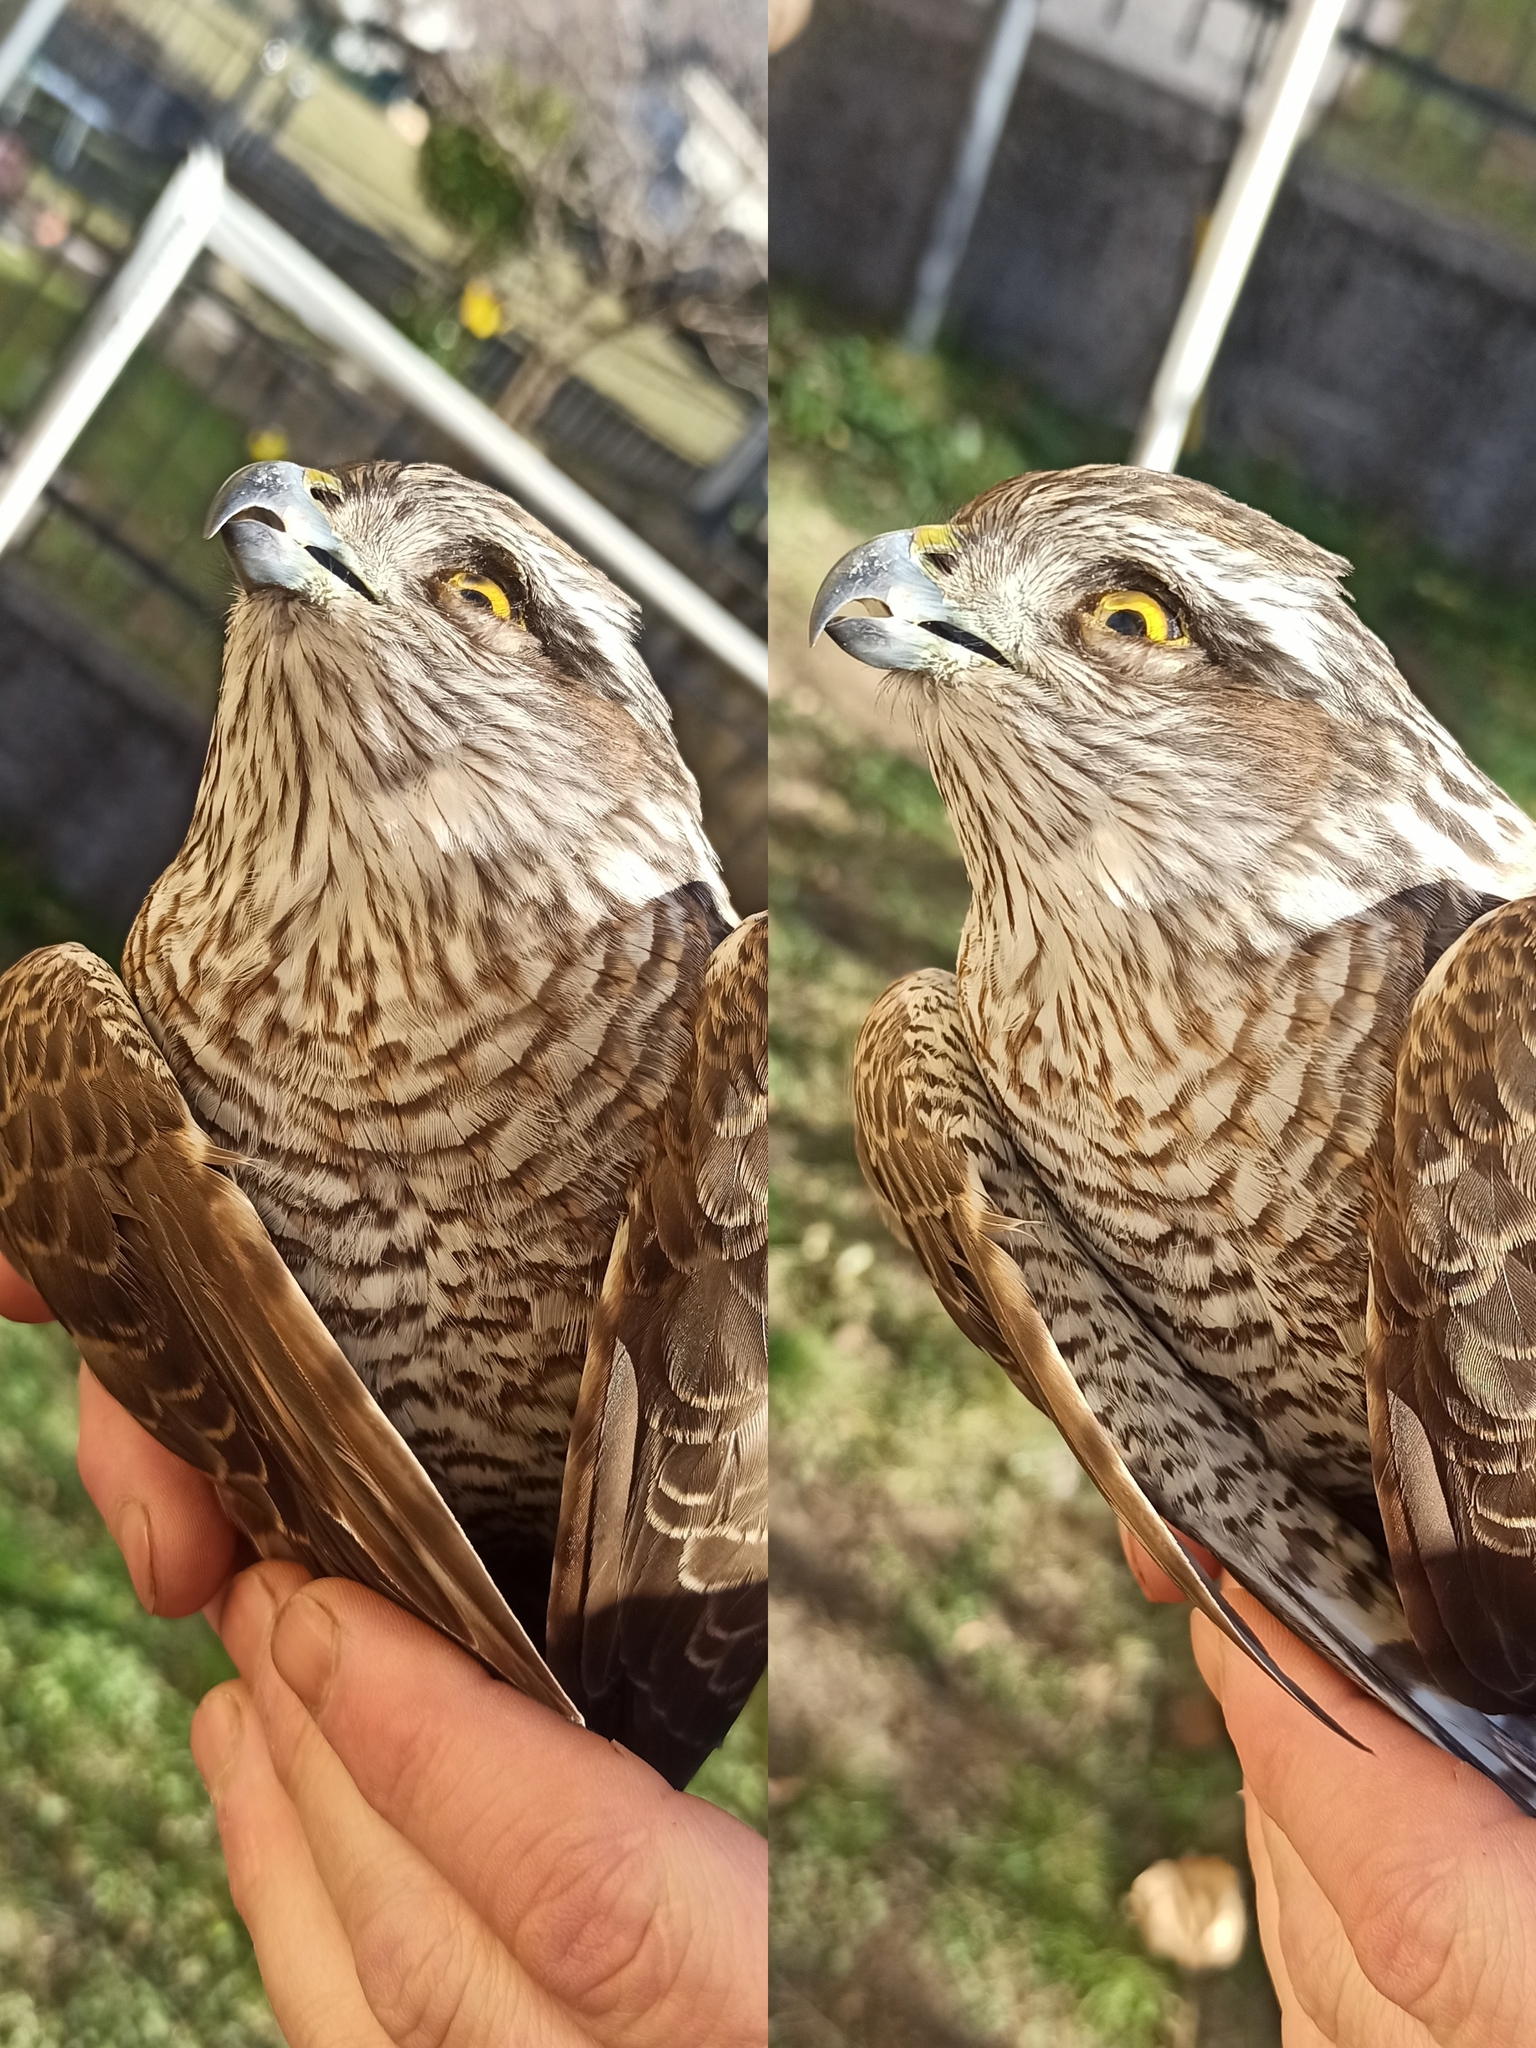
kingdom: Animalia
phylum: Chordata
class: Aves
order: Accipitriformes
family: Accipitridae
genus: Accipiter
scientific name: Accipiter nisus
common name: Eurasian sparrowhawk
